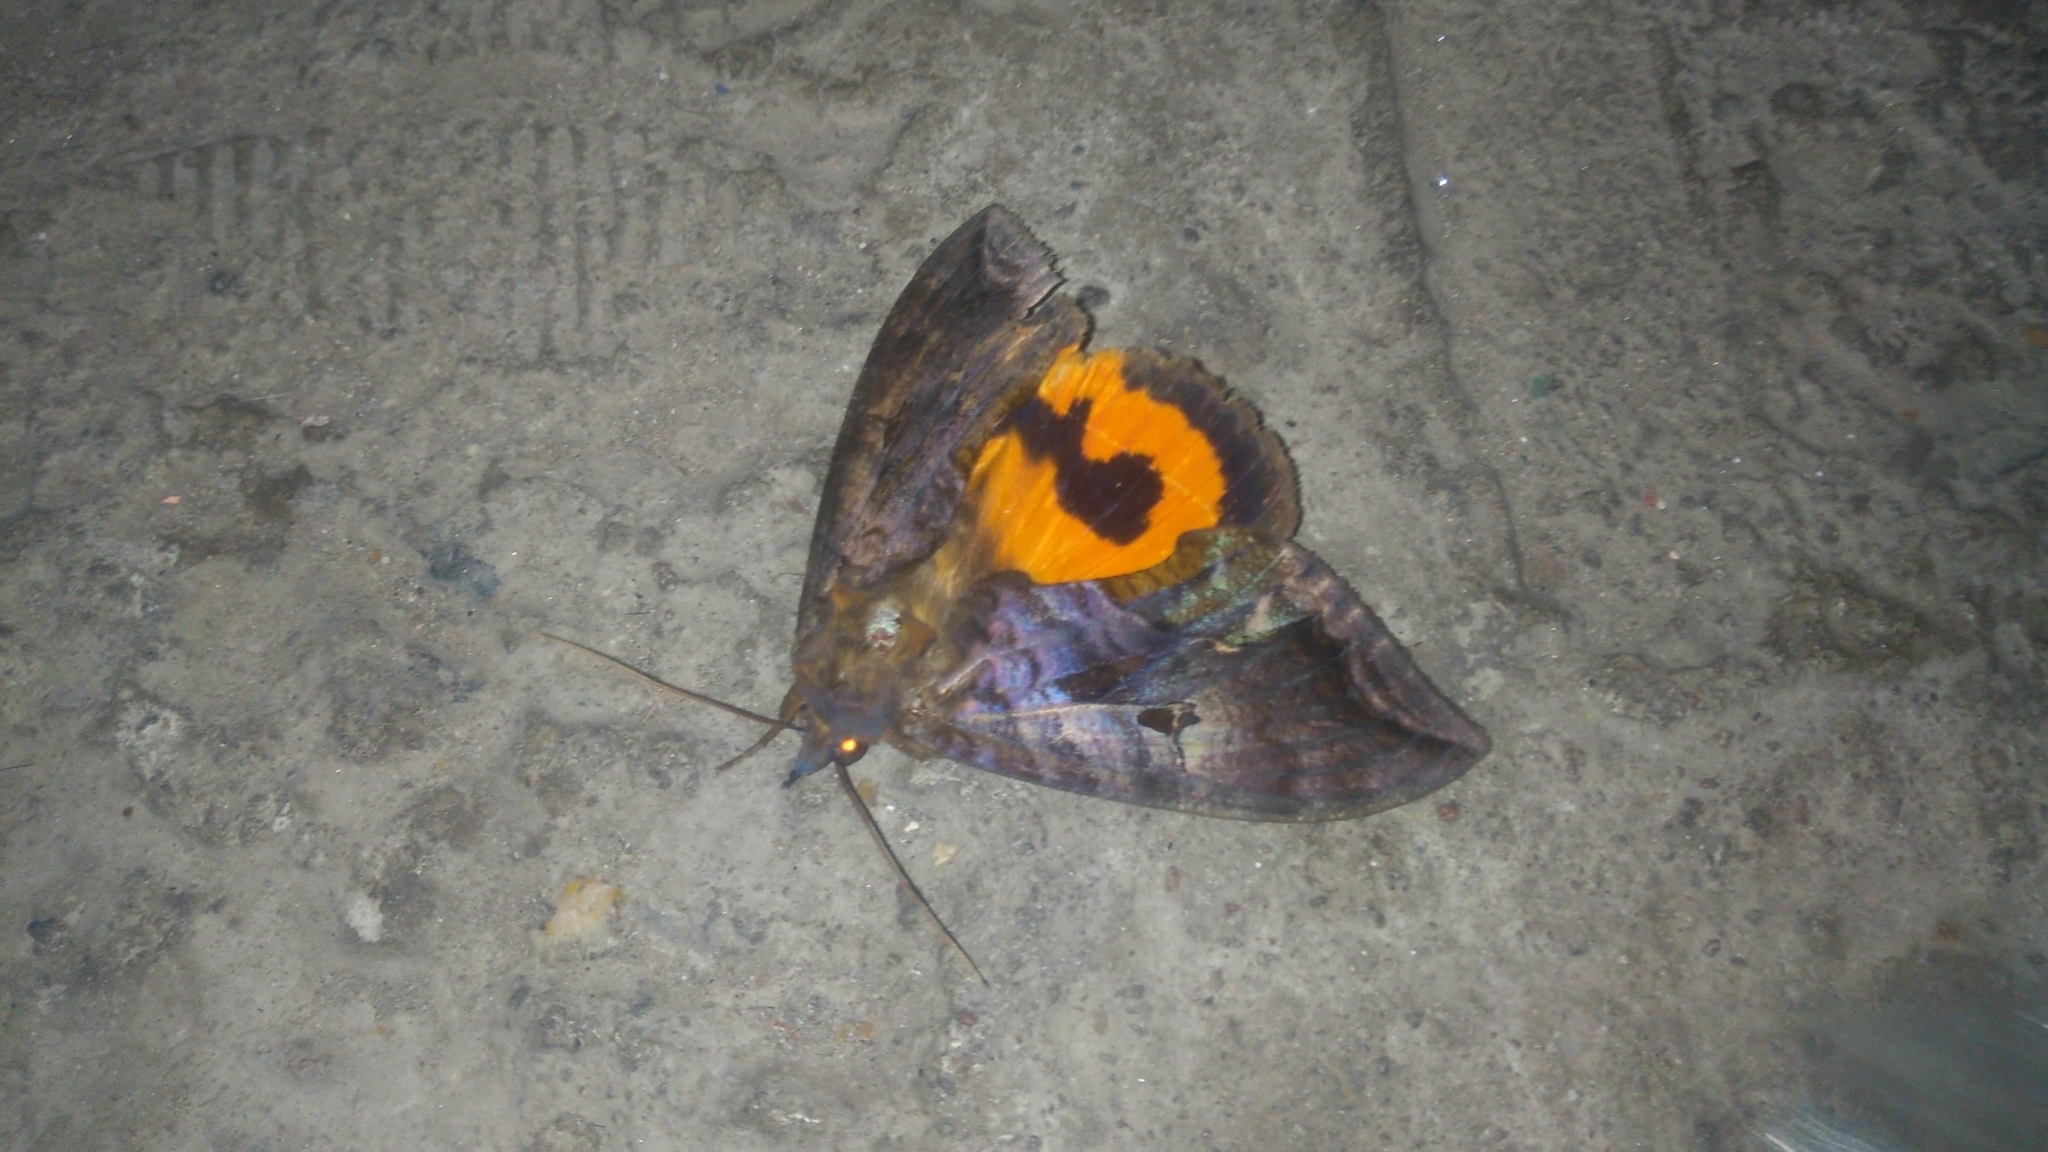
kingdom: Animalia
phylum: Arthropoda
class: Insecta
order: Lepidoptera
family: Erebidae
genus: Eudocima
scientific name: Eudocima serpentifera
